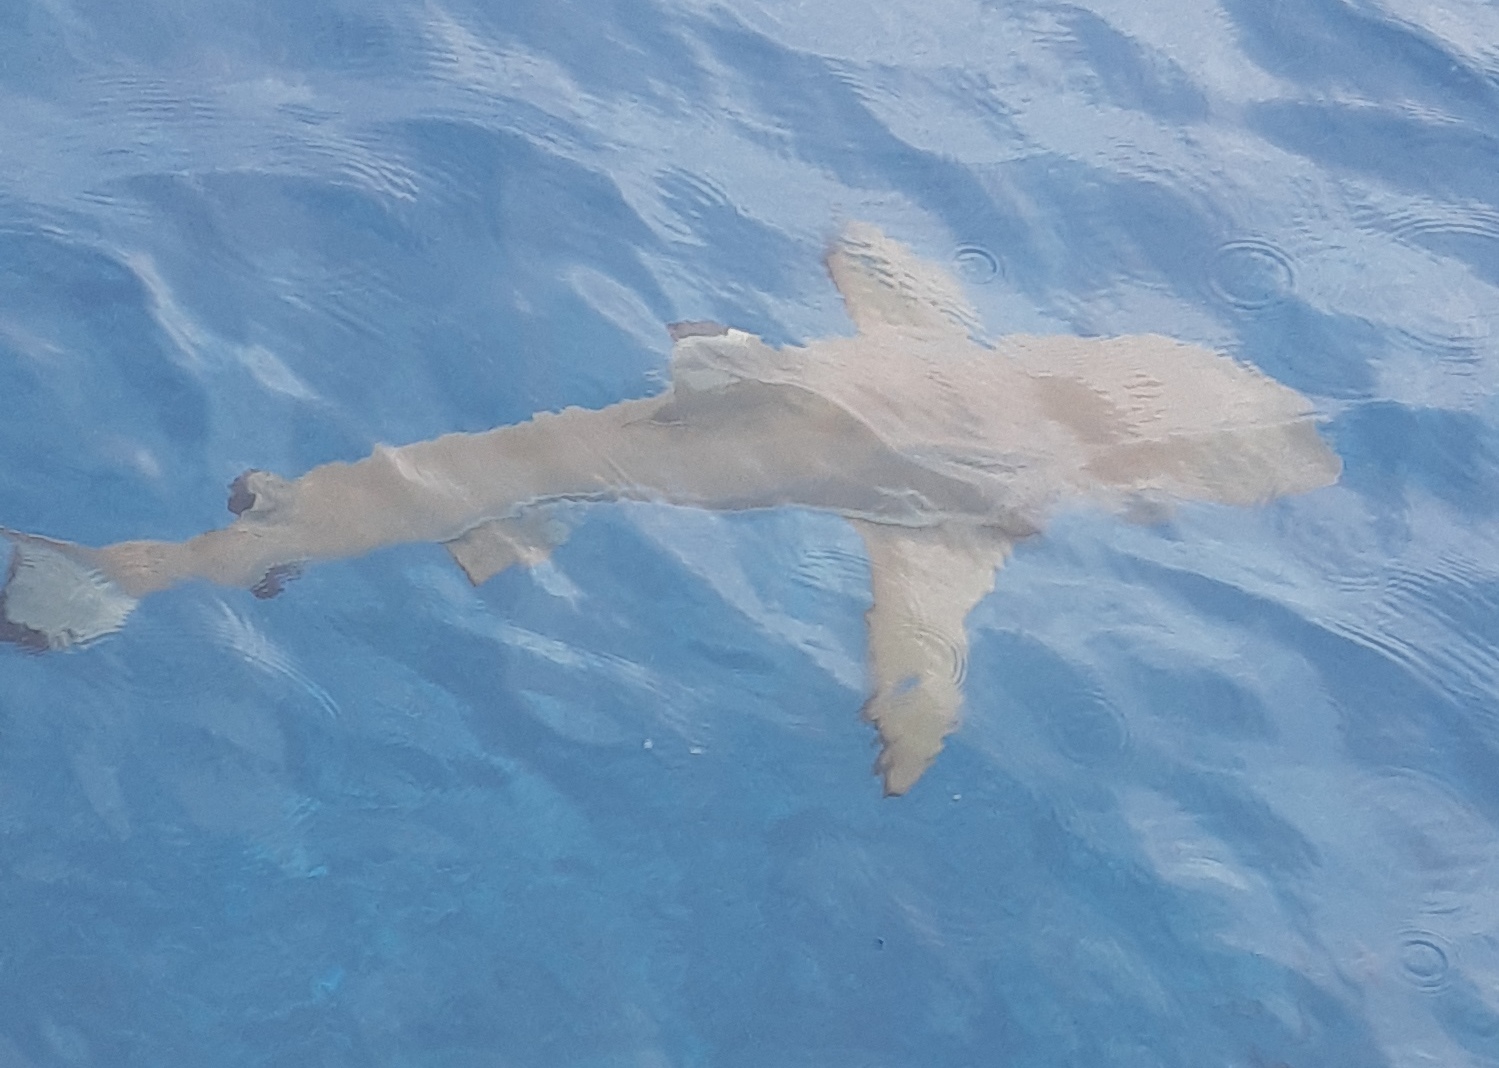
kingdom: Animalia
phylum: Chordata
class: Elasmobranchii
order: Carcharhiniformes
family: Carcharhinidae
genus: Carcharhinus
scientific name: Carcharhinus melanopterus
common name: Blacktip reef shark
